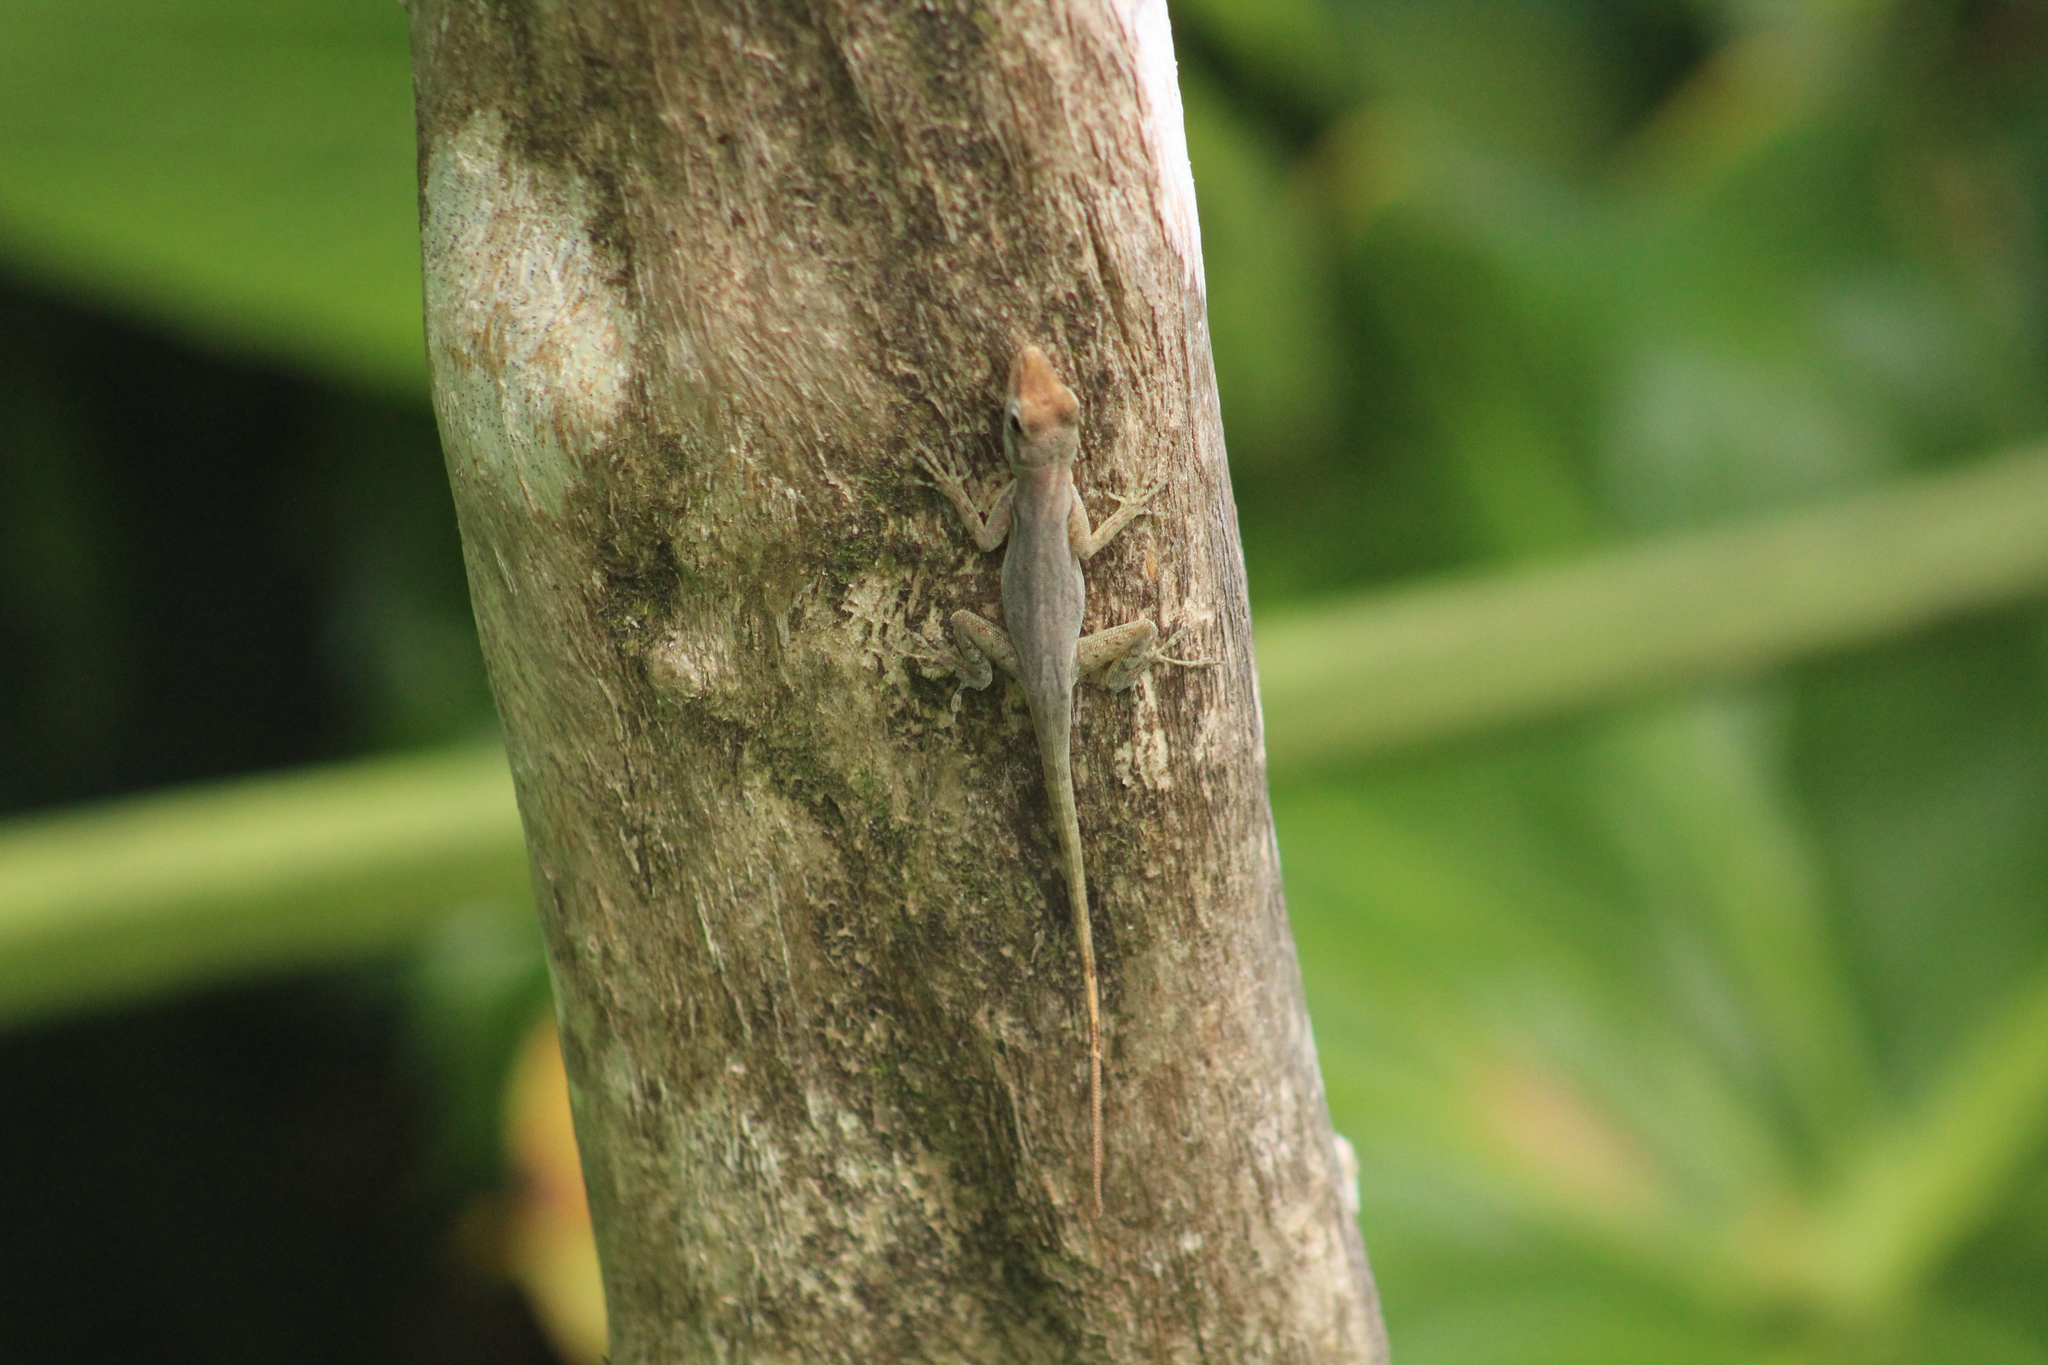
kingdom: Animalia
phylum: Chordata
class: Squamata
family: Dactyloidae
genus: Anolis
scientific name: Anolis sabanus
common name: Saba anole
